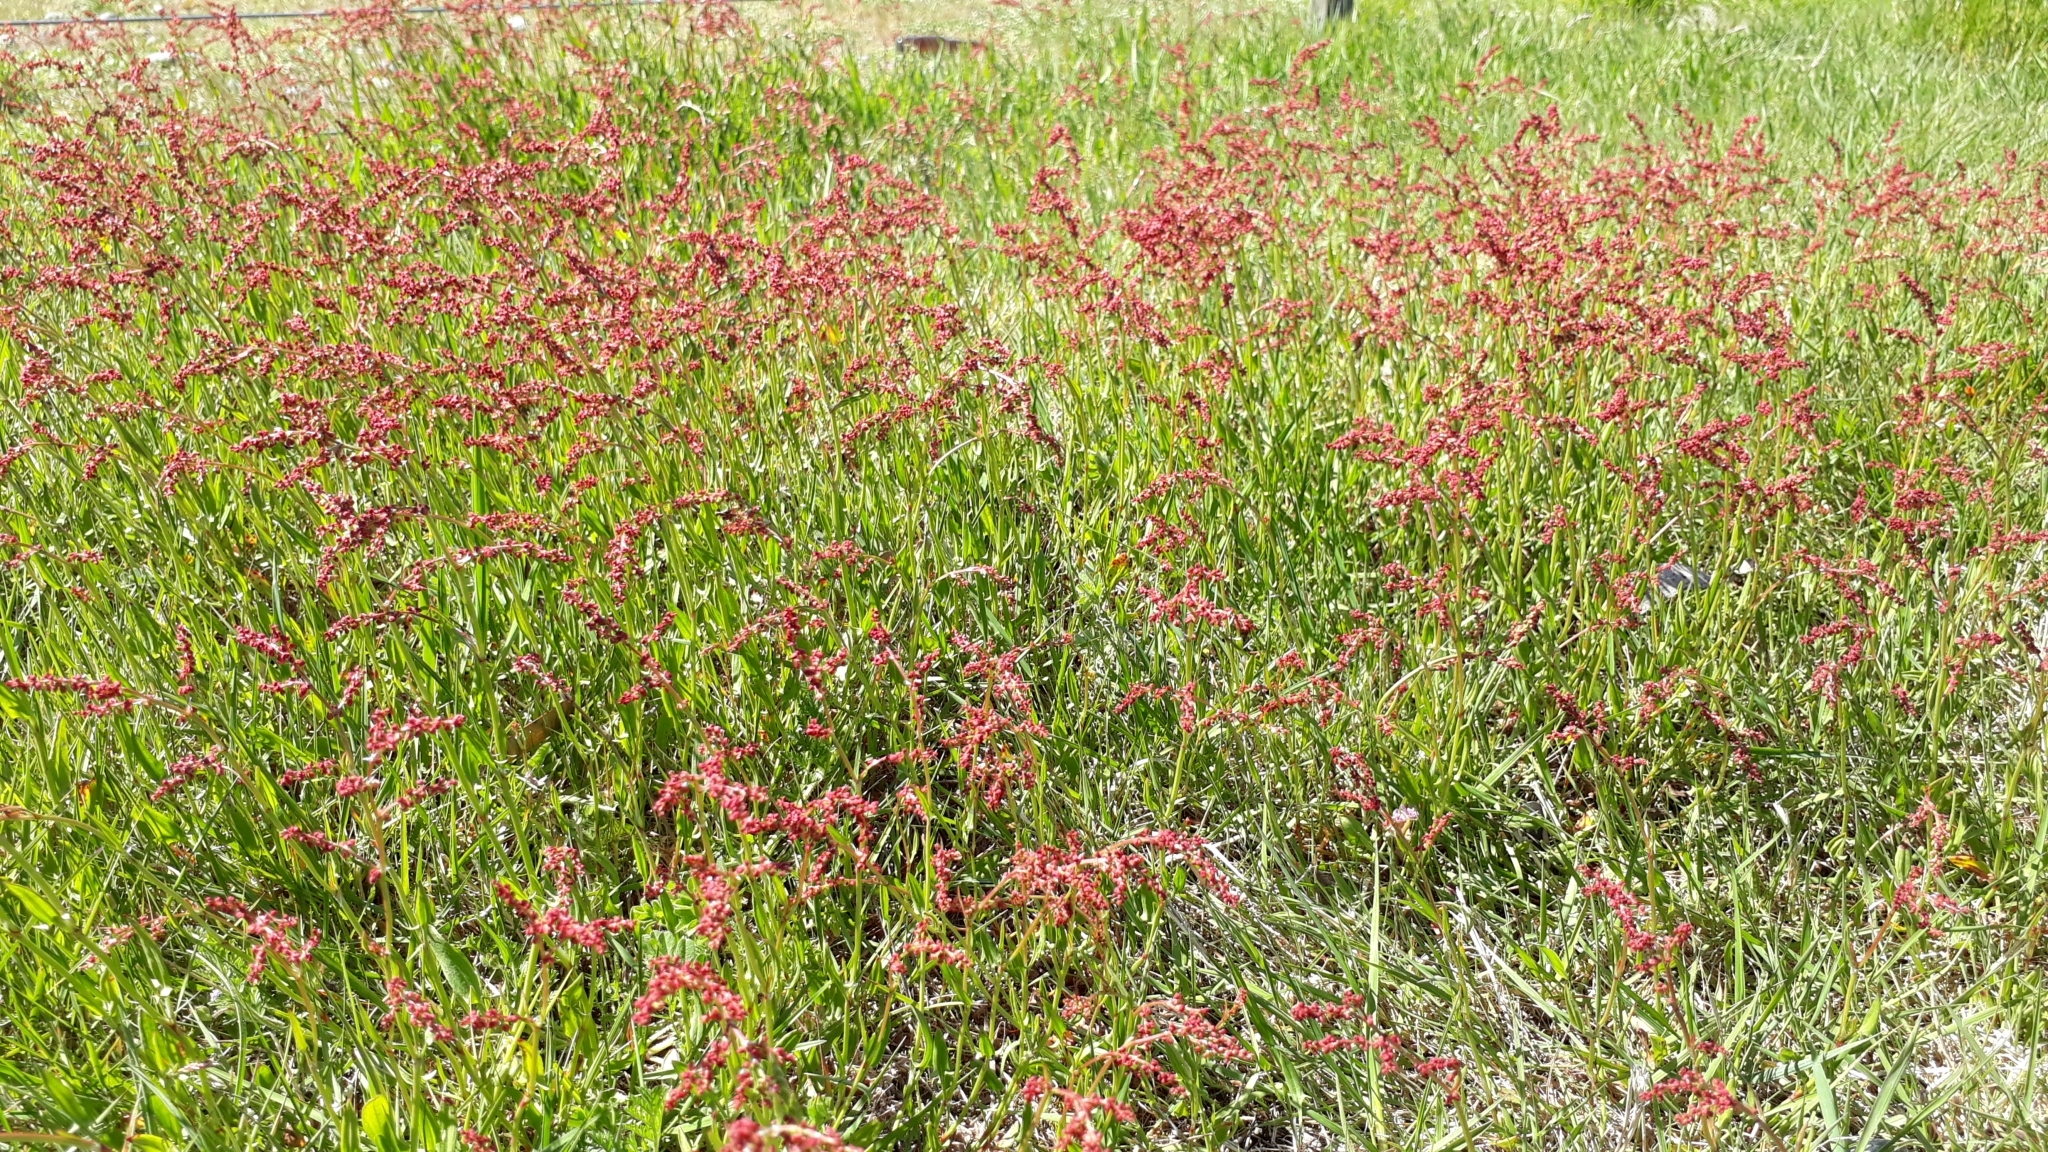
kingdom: Plantae
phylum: Tracheophyta
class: Magnoliopsida
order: Caryophyllales
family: Polygonaceae
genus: Rumex
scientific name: Rumex acetosella
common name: Common sheep sorrel
